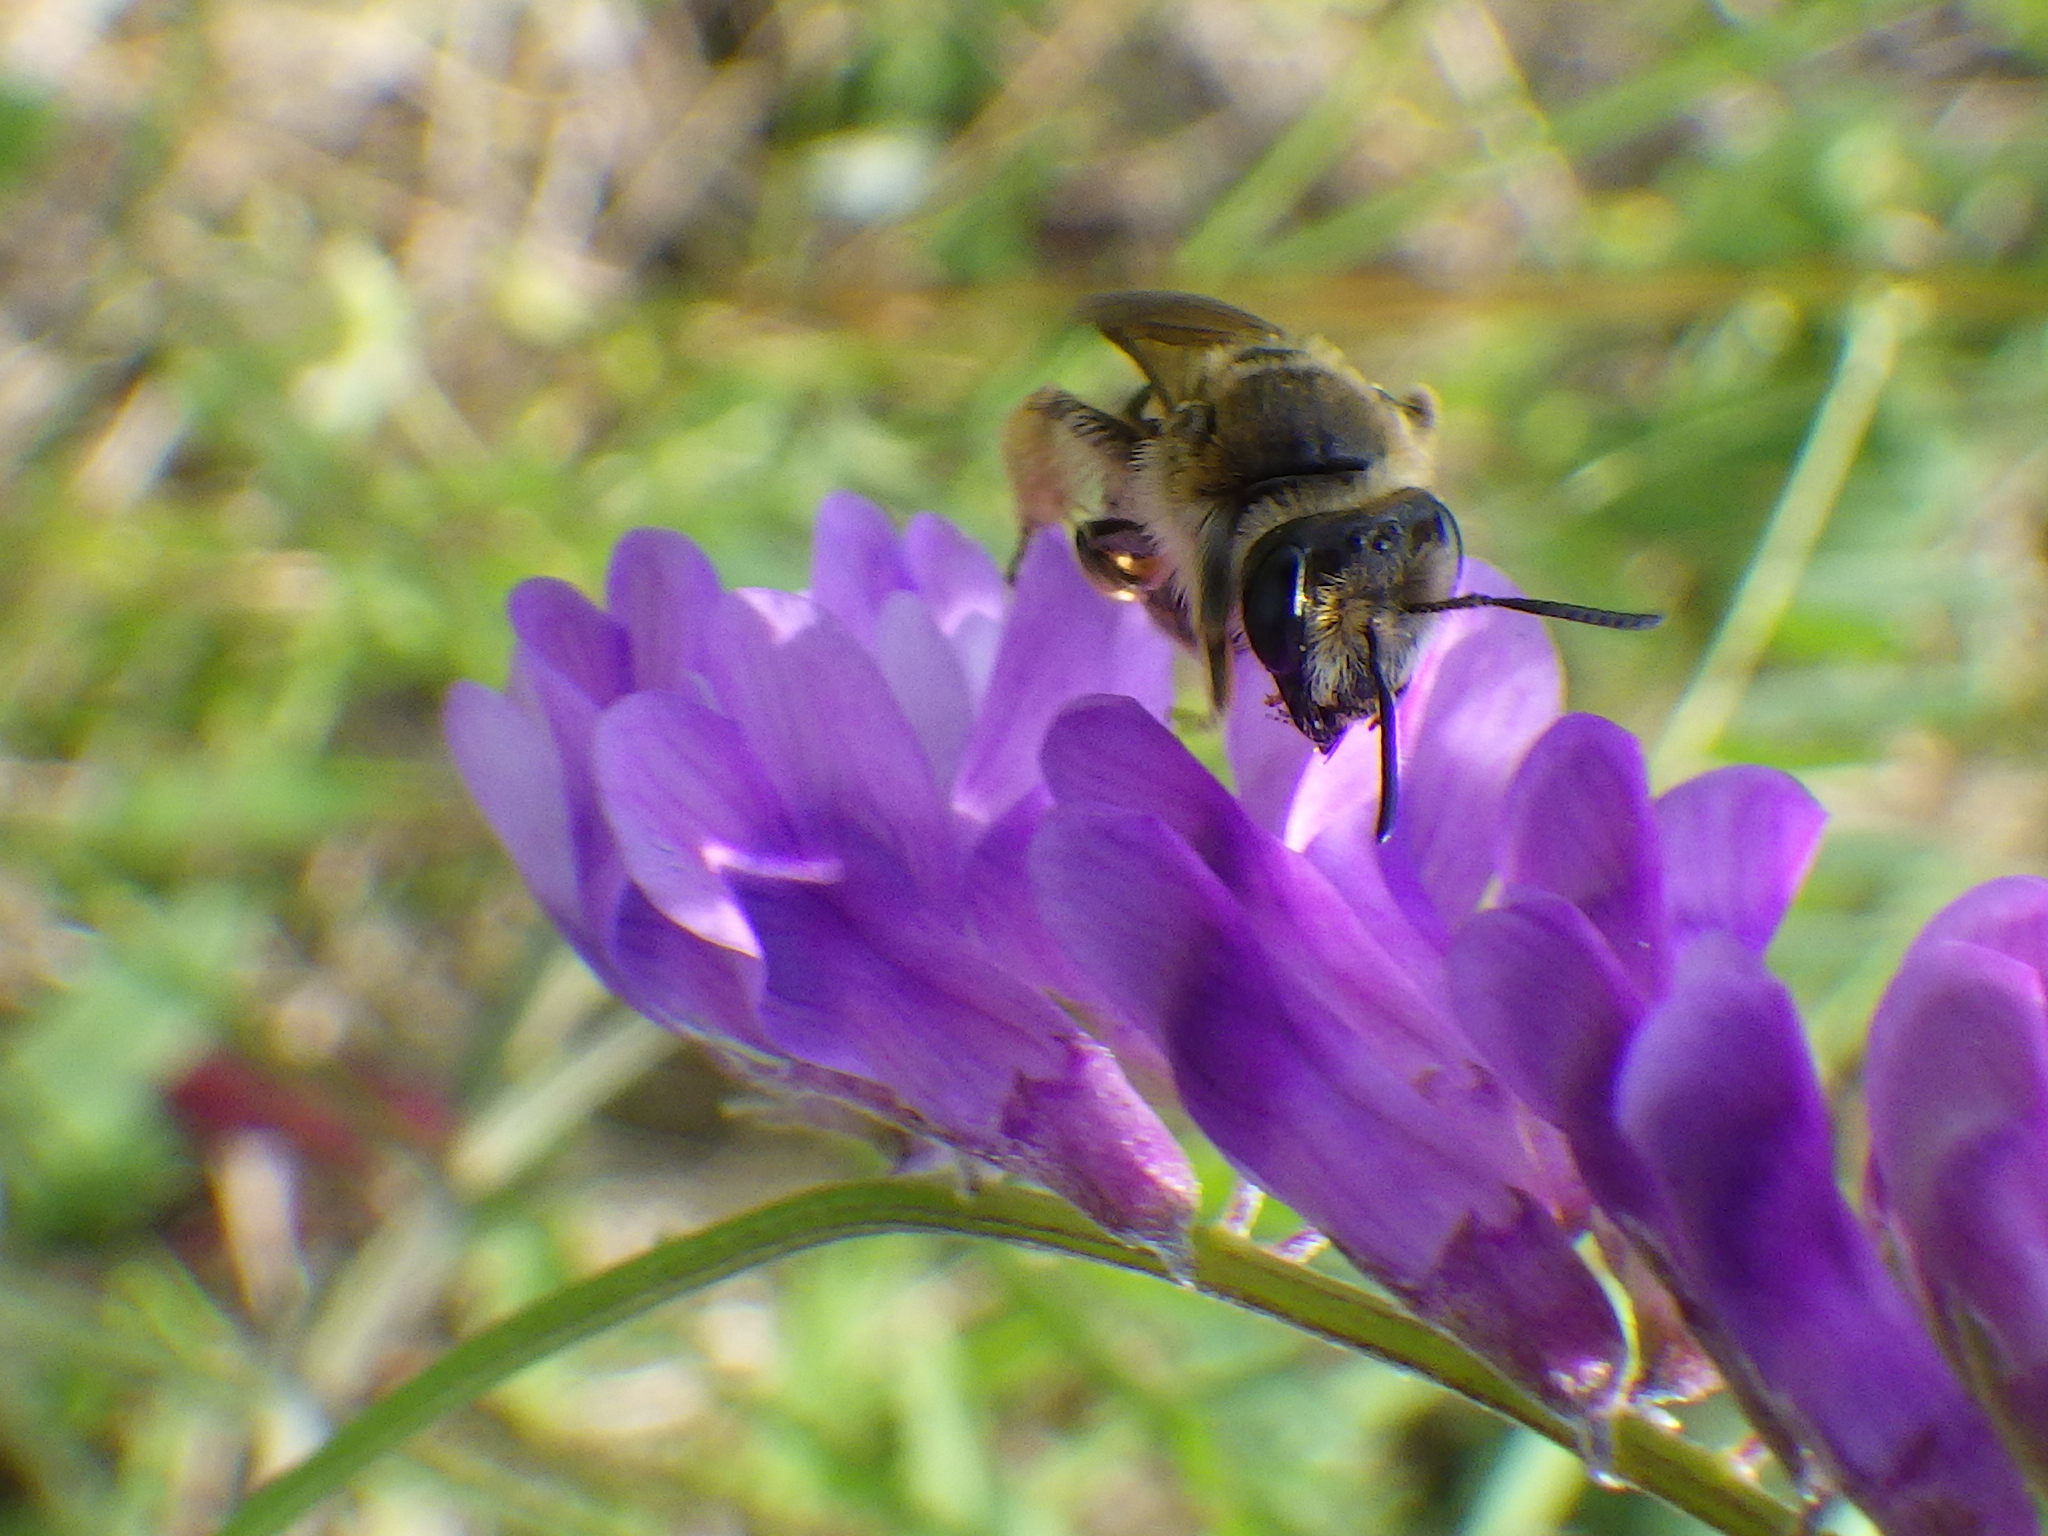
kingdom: Animalia
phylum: Arthropoda
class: Insecta
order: Hymenoptera
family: Andrenidae
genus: Andrena
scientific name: Andrena wilkella
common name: Wilke's mining bee
